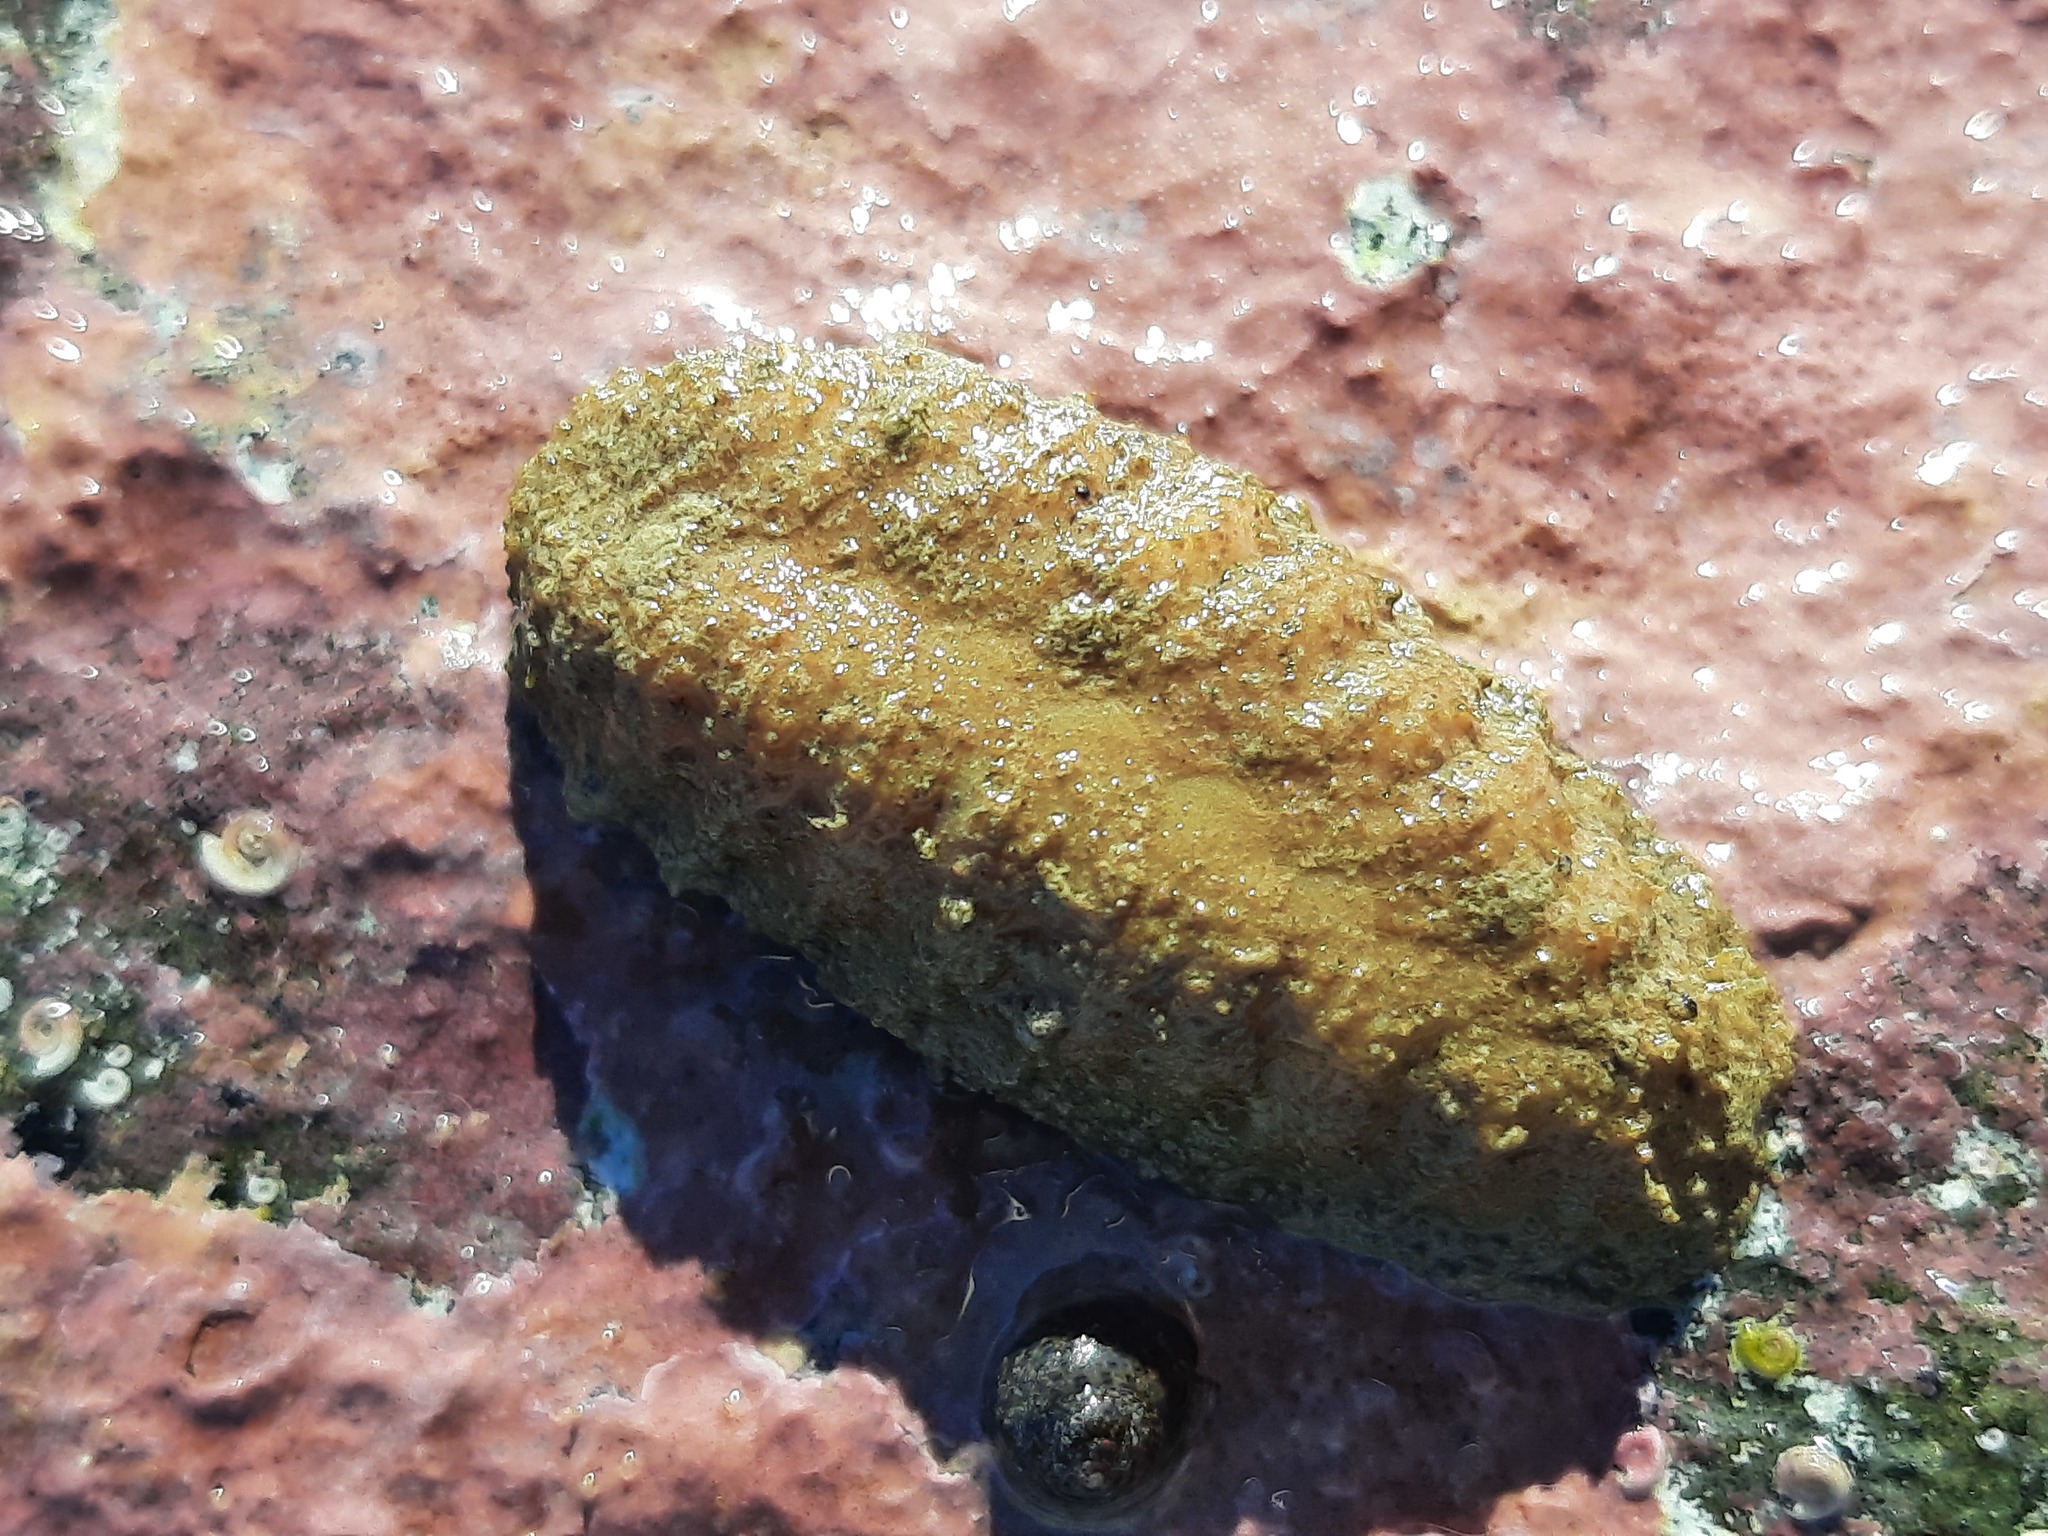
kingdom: Animalia
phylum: Annelida
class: Polychaeta
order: Phyllodocida
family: Polynoidae
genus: Euphione
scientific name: Euphione squamosa
